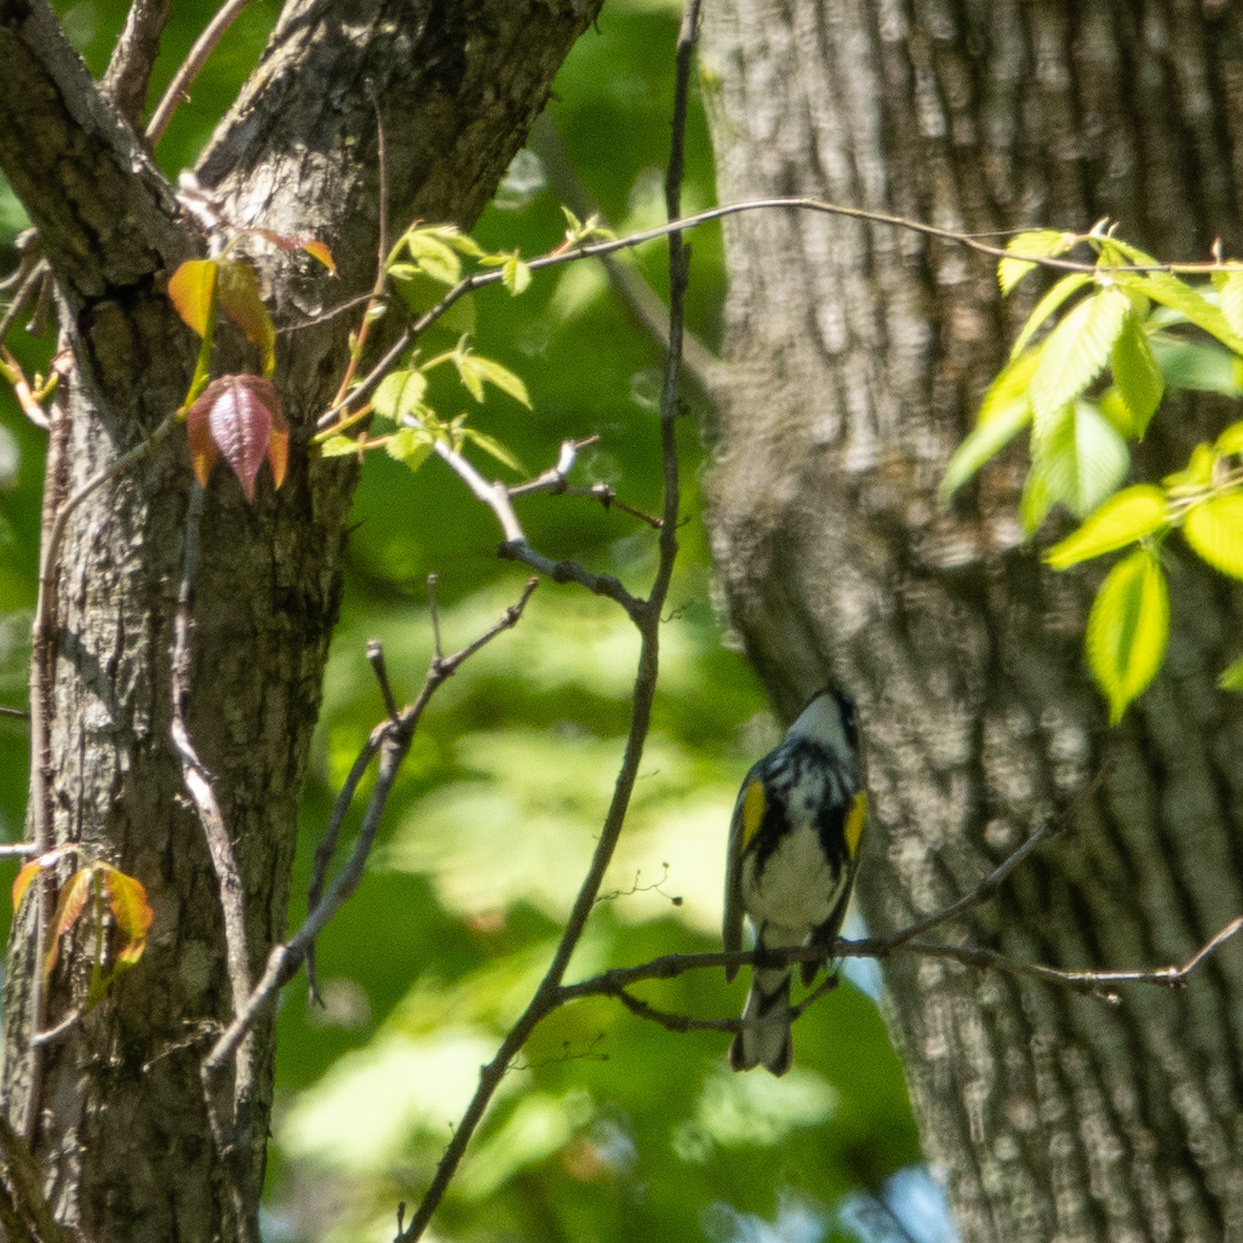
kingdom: Animalia
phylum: Chordata
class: Aves
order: Passeriformes
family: Parulidae
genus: Setophaga
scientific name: Setophaga coronata
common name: Myrtle warbler
